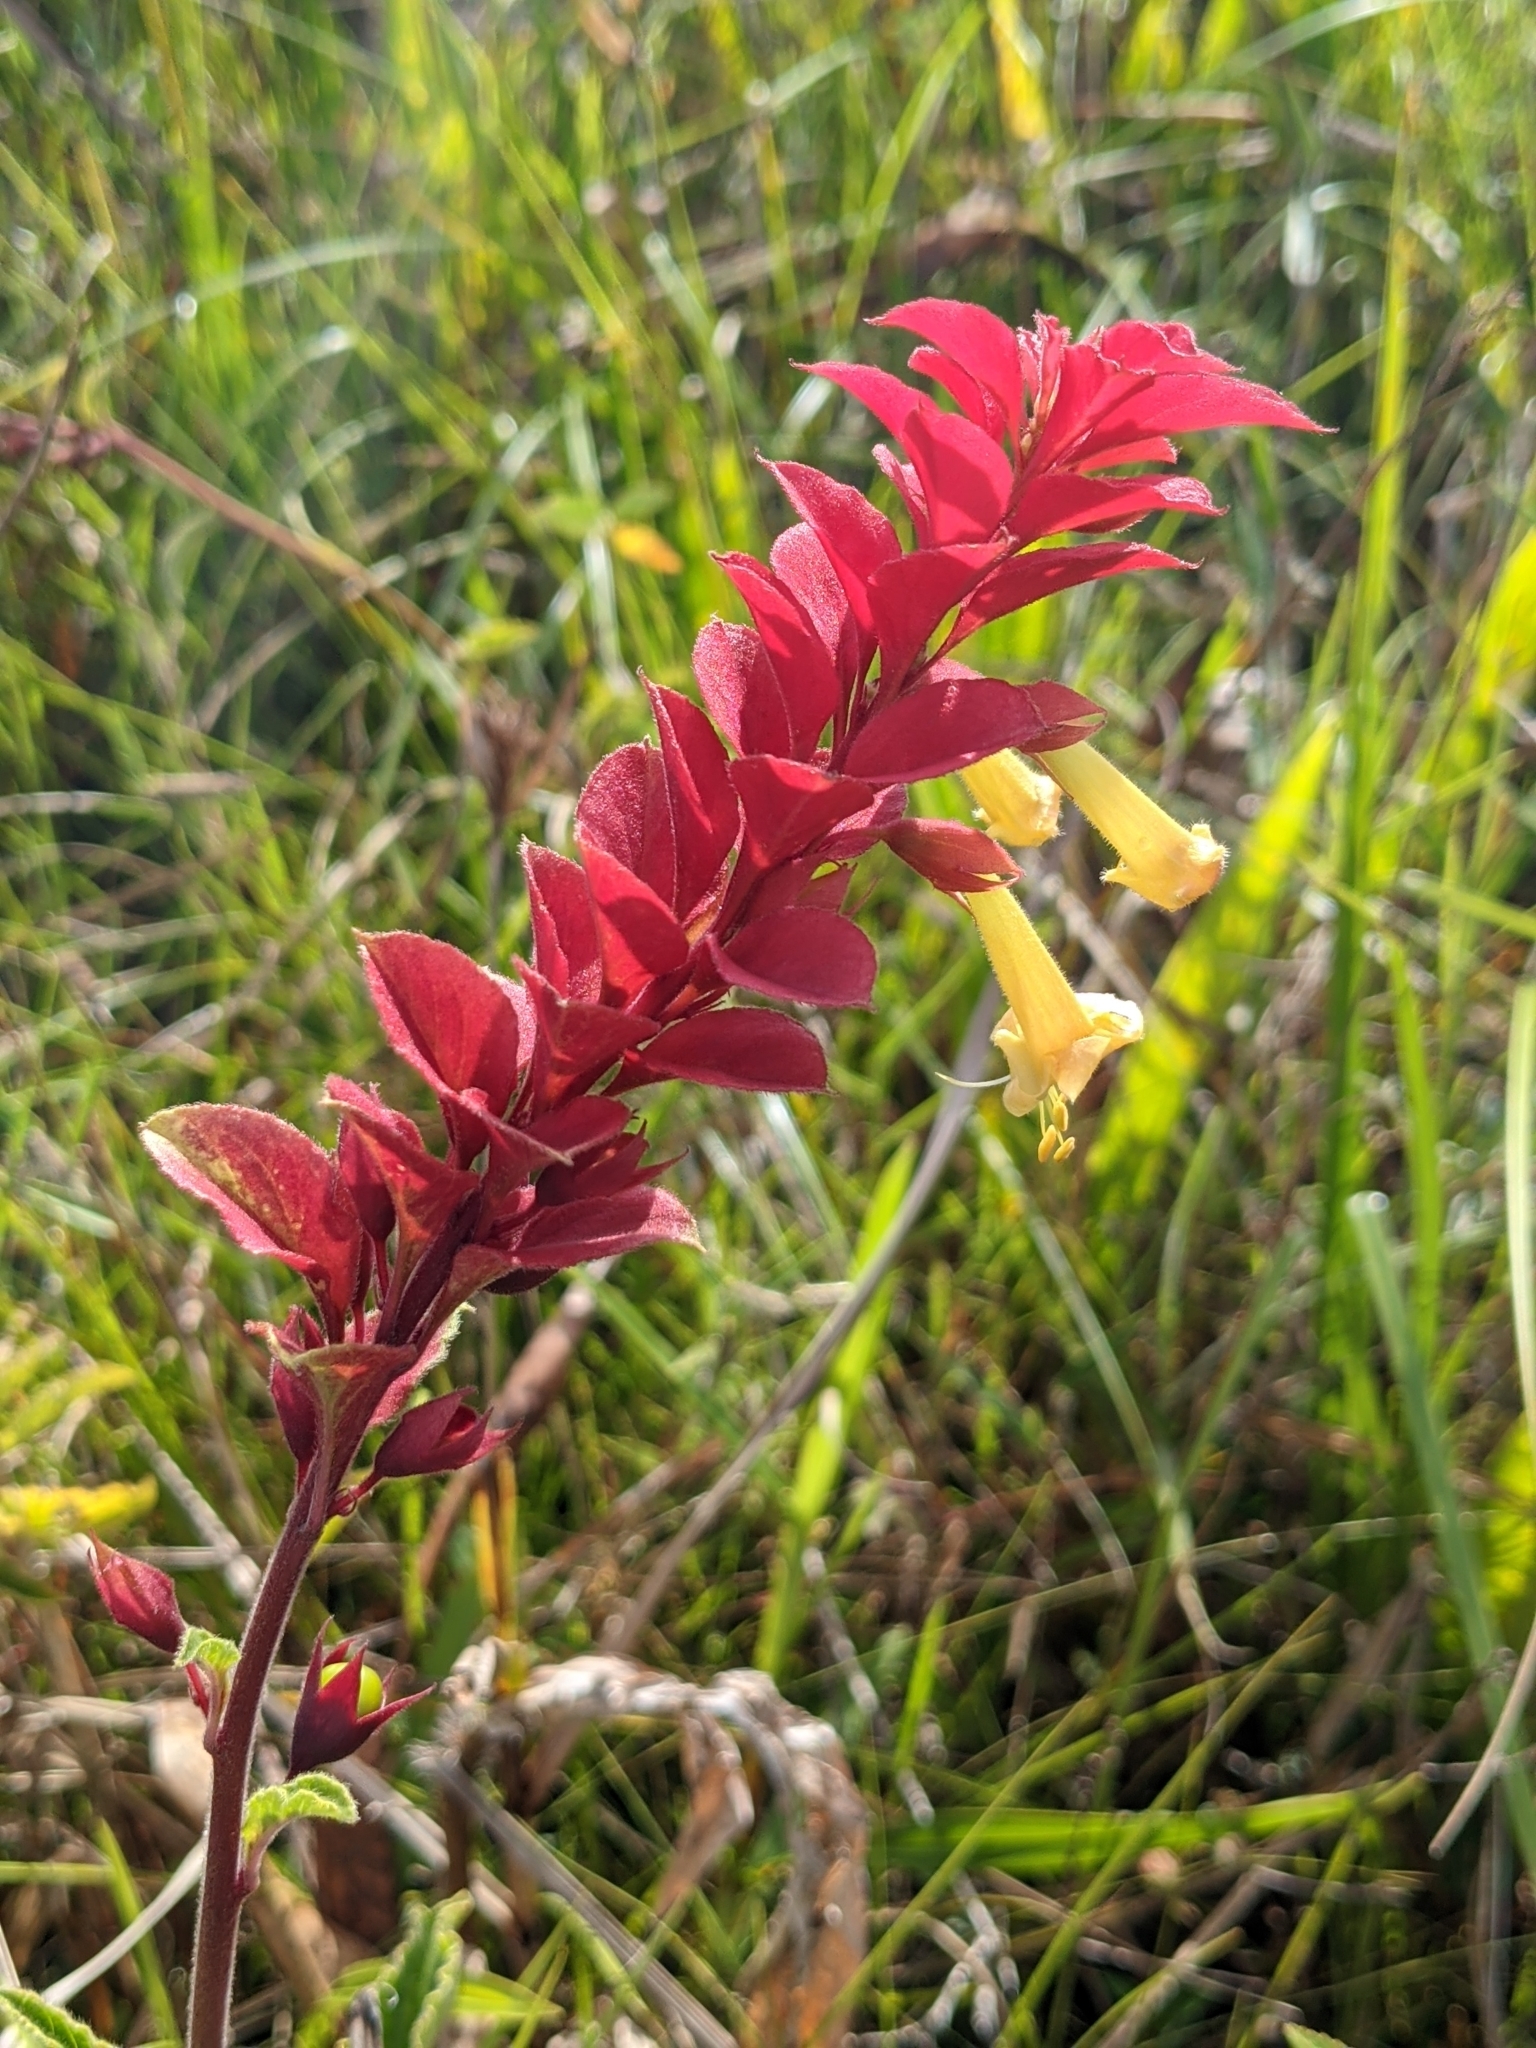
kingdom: Plantae
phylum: Tracheophyta
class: Magnoliopsida
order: Lamiales
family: Lamiaceae
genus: Amasonia
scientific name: Amasonia campestris
